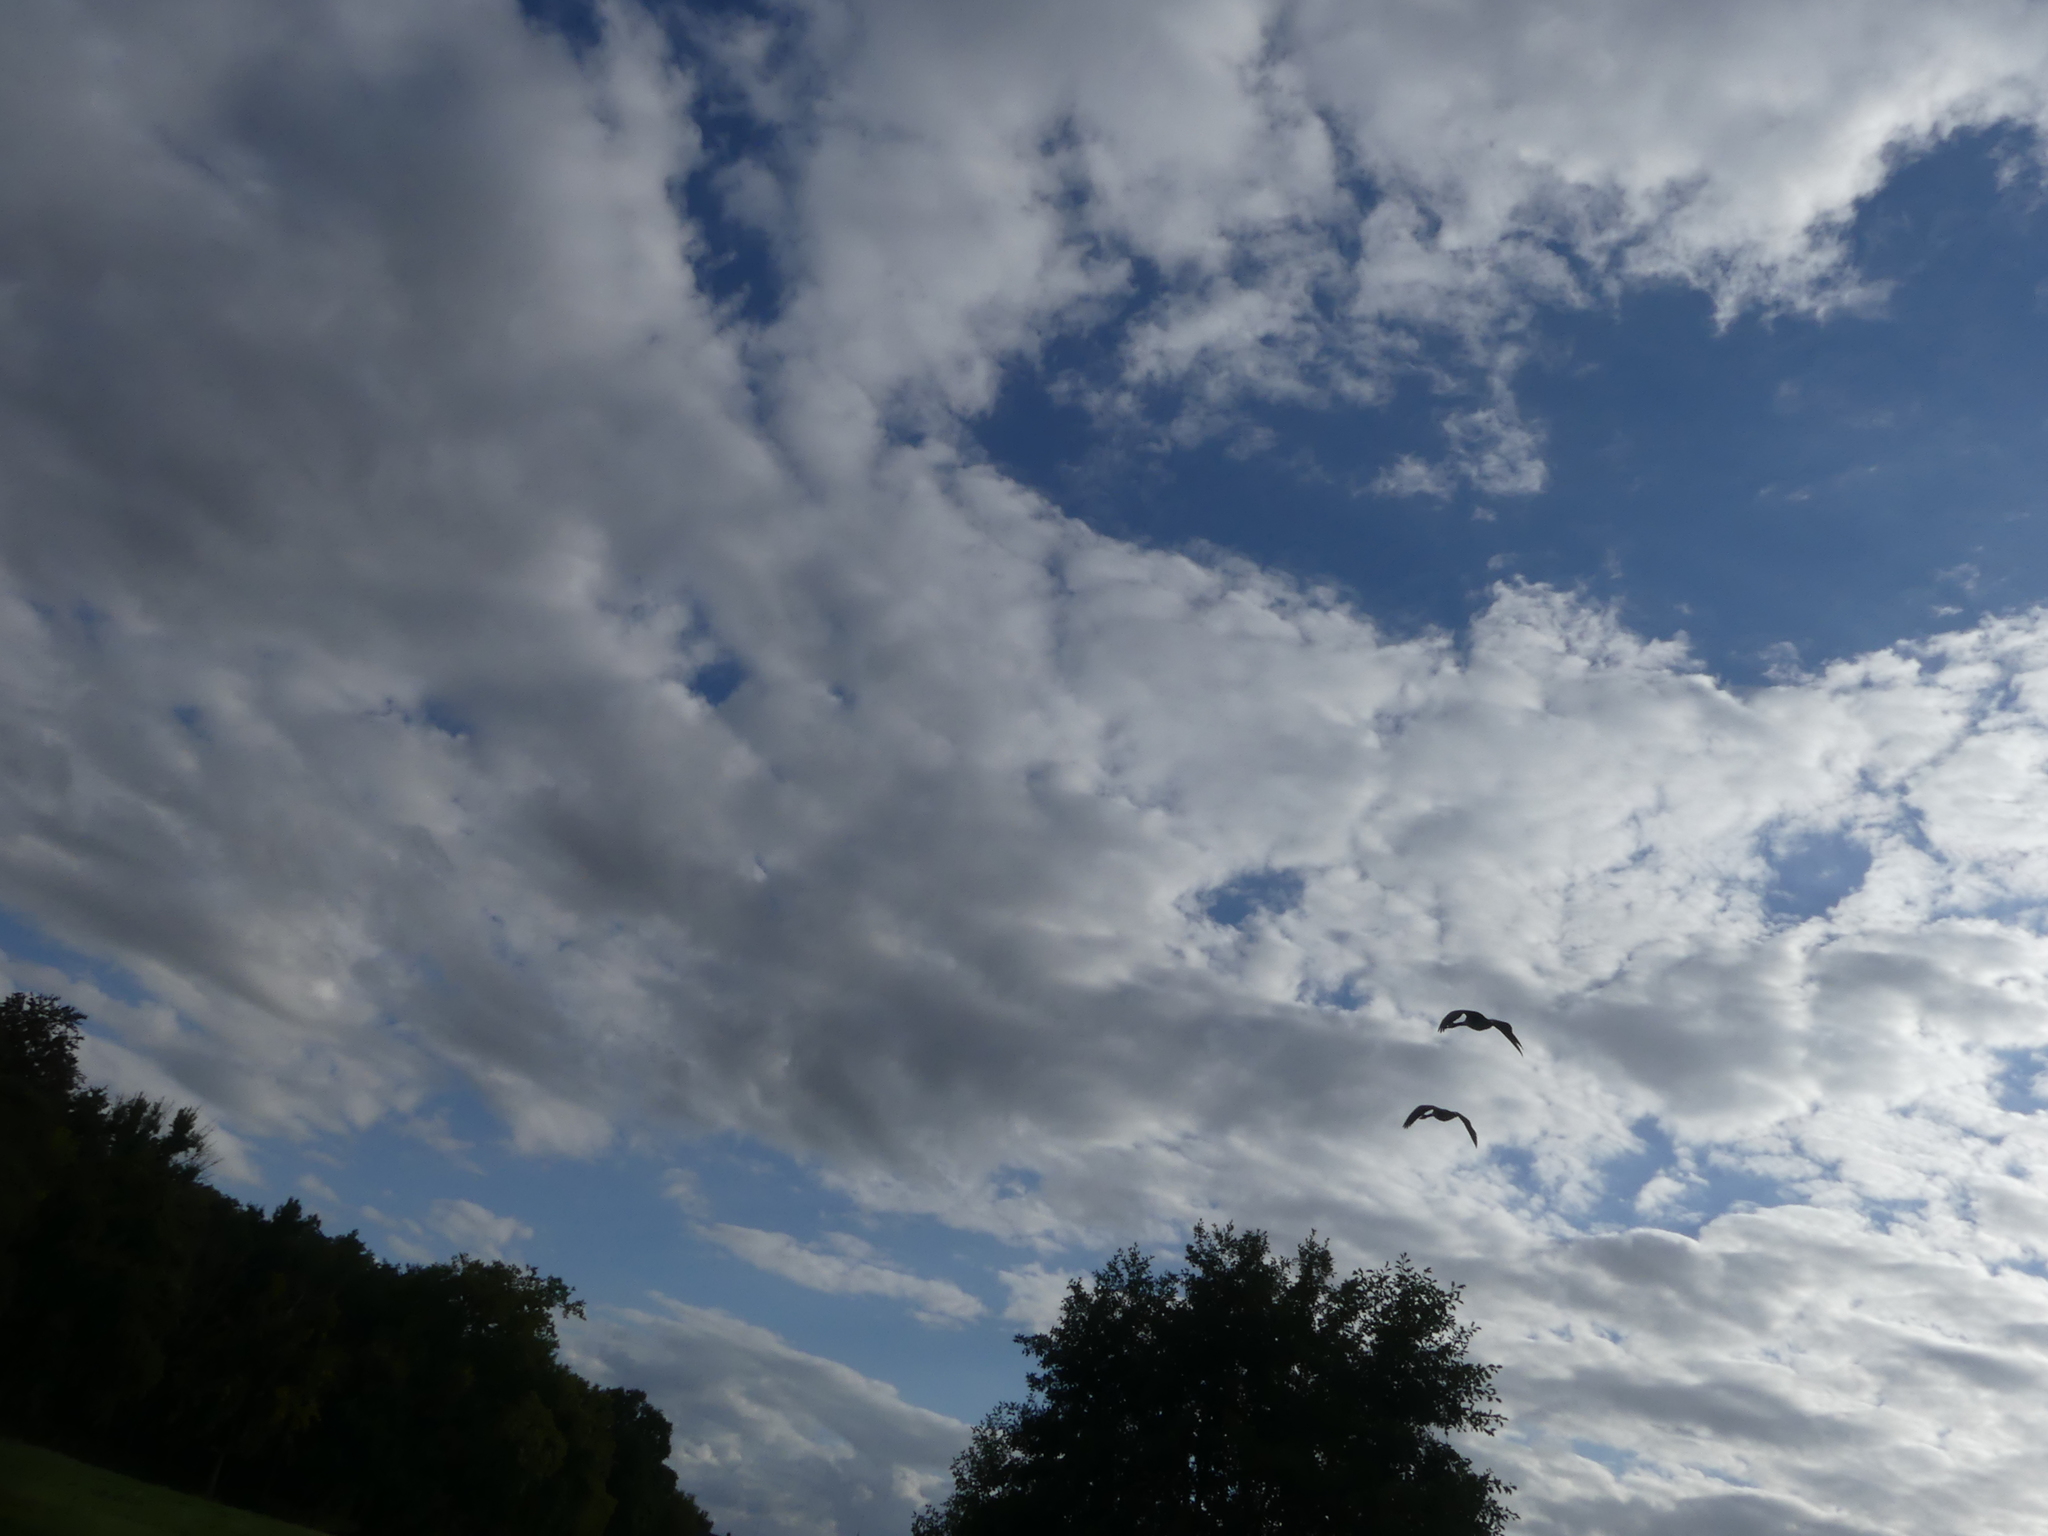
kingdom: Animalia
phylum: Chordata
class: Aves
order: Anseriformes
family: Anatidae
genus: Branta
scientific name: Branta canadensis
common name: Canada goose
